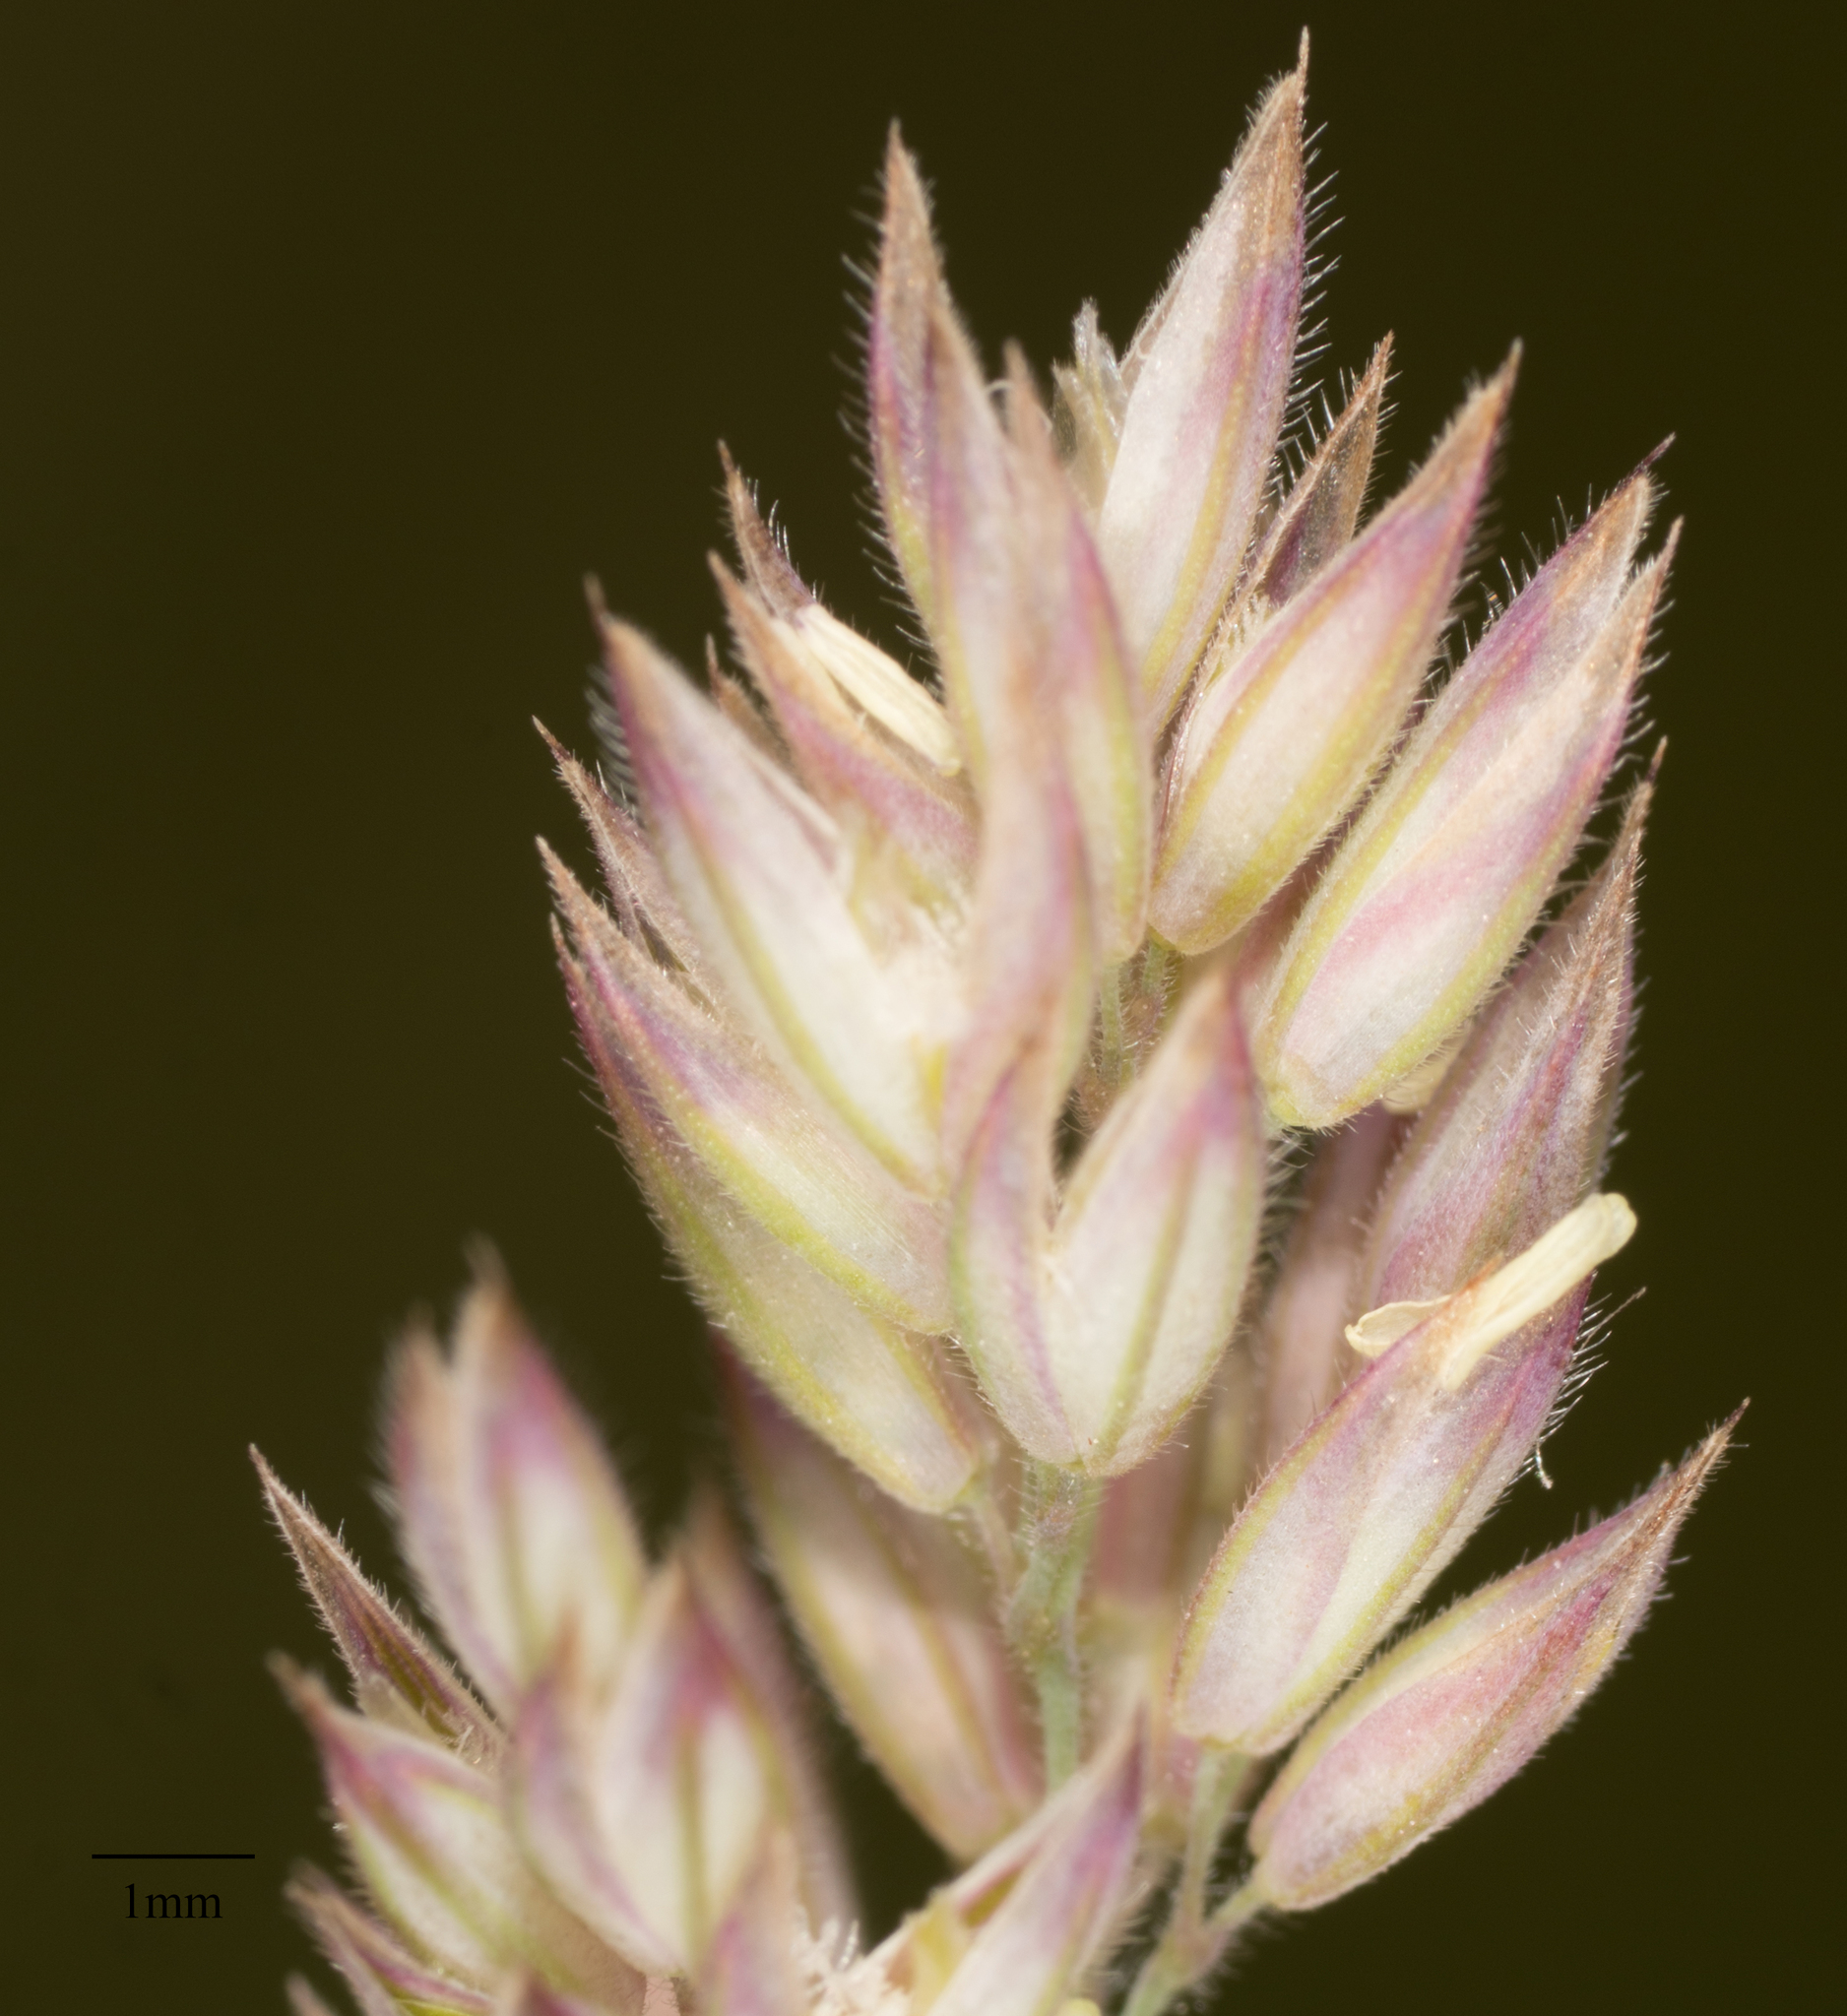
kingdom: Plantae
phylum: Tracheophyta
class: Liliopsida
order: Poales
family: Poaceae
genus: Holcus
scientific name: Holcus lanatus
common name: Yorkshire-fog
